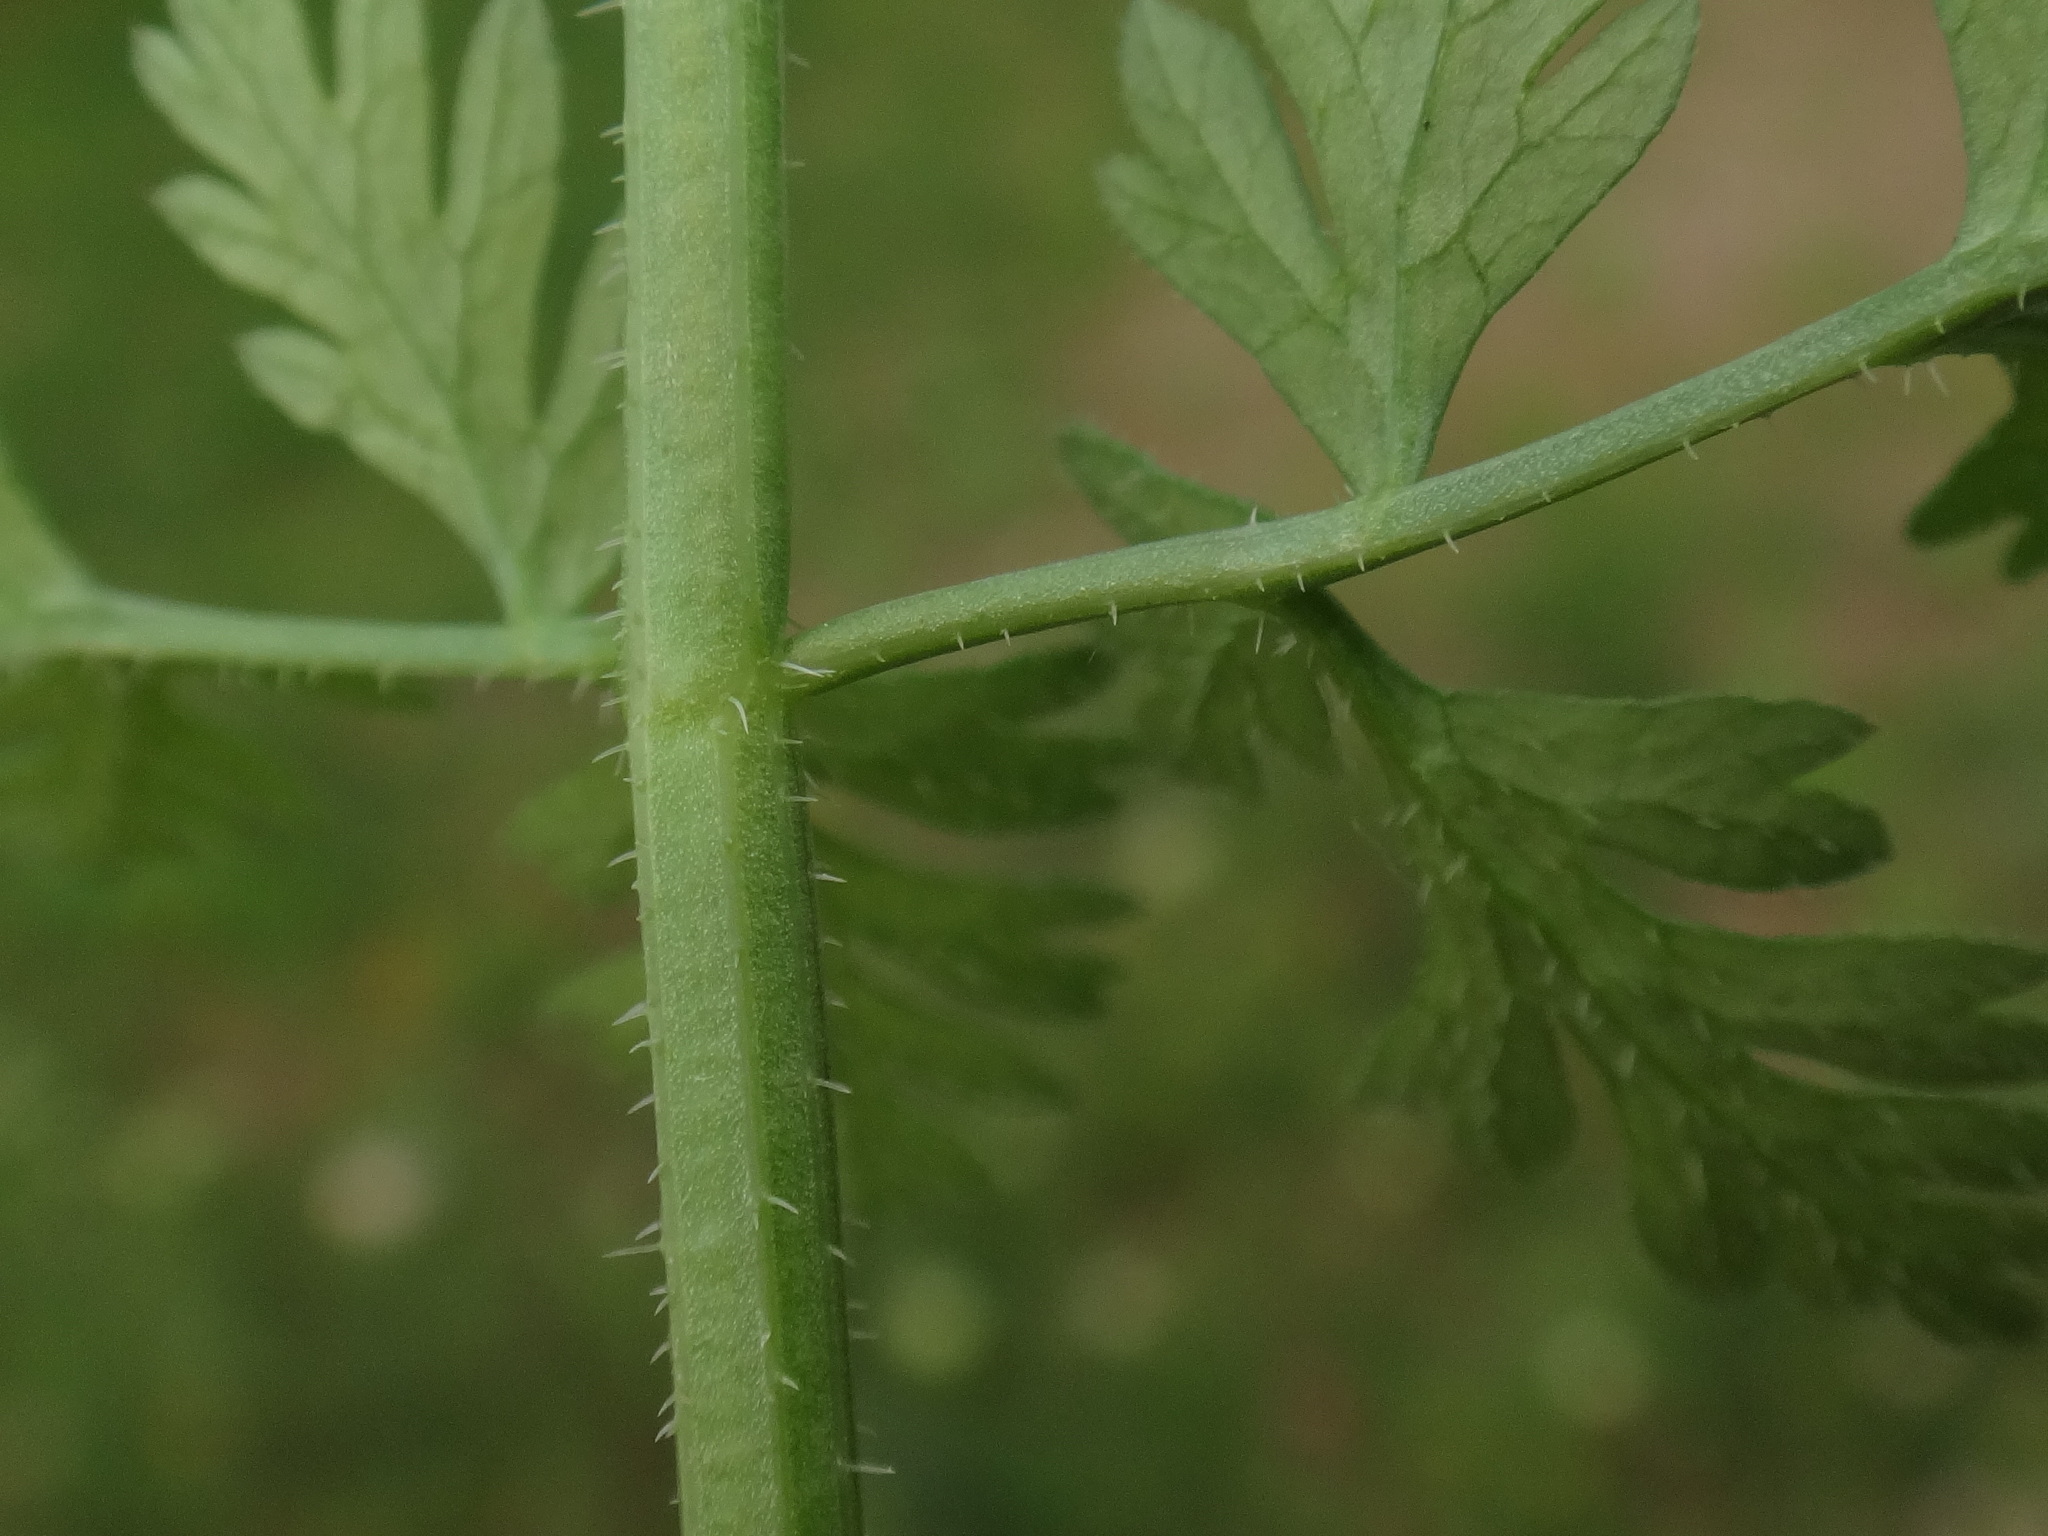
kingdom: Plantae
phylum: Tracheophyta
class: Magnoliopsida
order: Apiales
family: Apiaceae
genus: Daucus
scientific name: Daucus carota
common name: Wild carrot
